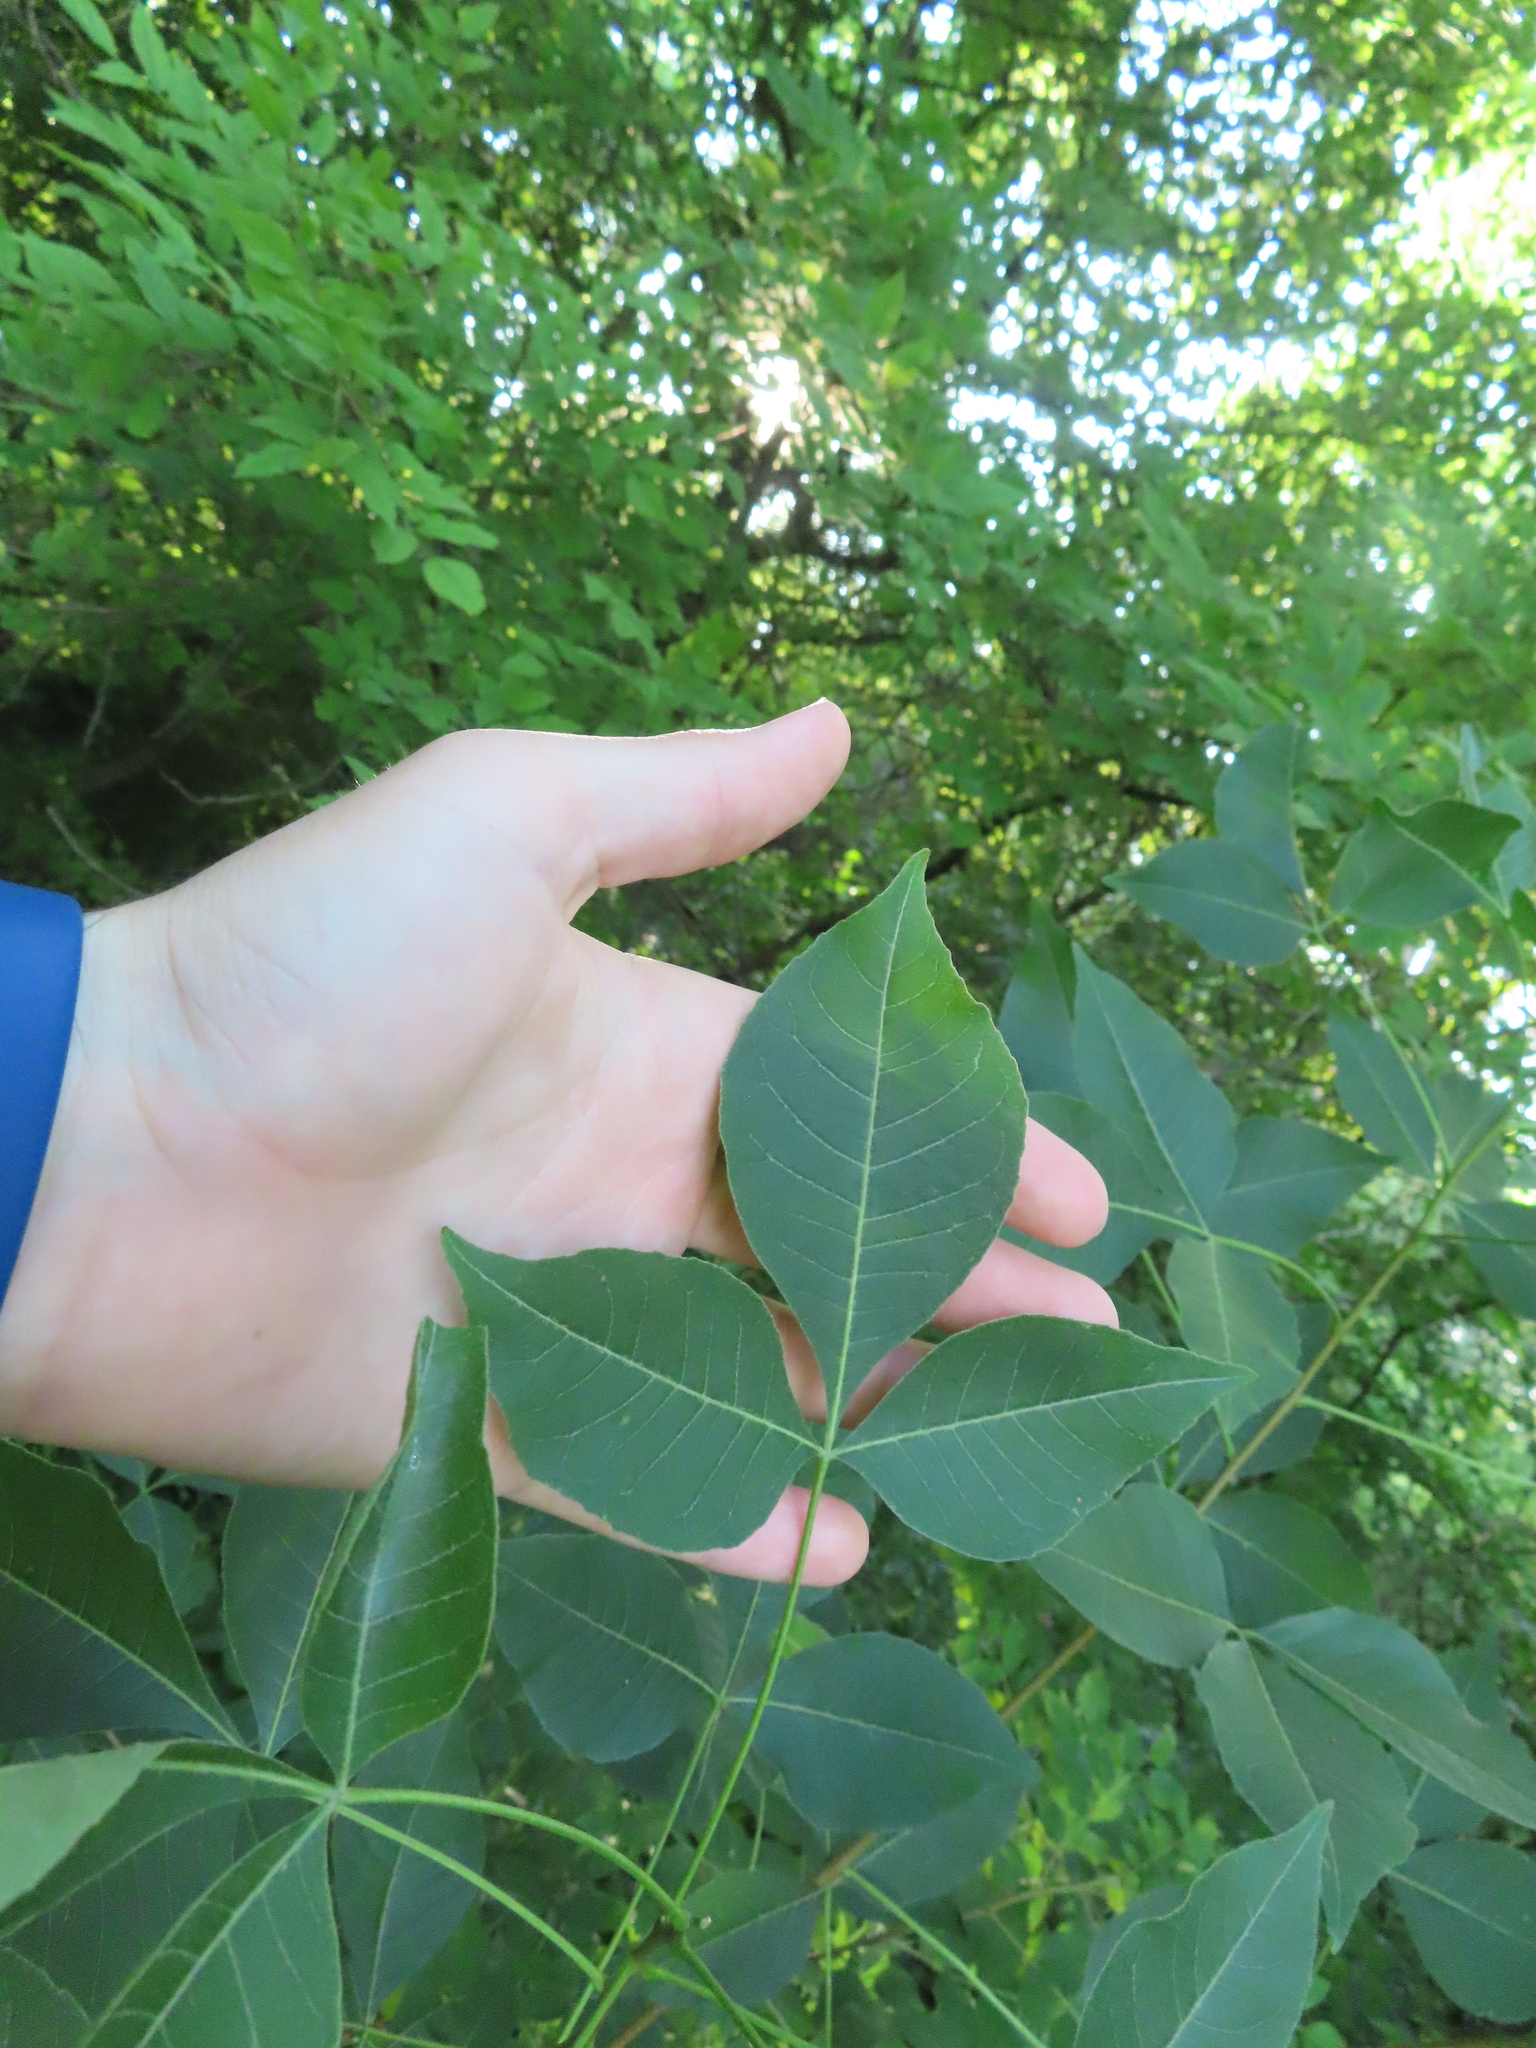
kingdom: Plantae
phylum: Tracheophyta
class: Magnoliopsida
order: Sapindales
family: Rutaceae
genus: Ptelea
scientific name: Ptelea trifoliata
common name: Common hop-tree
